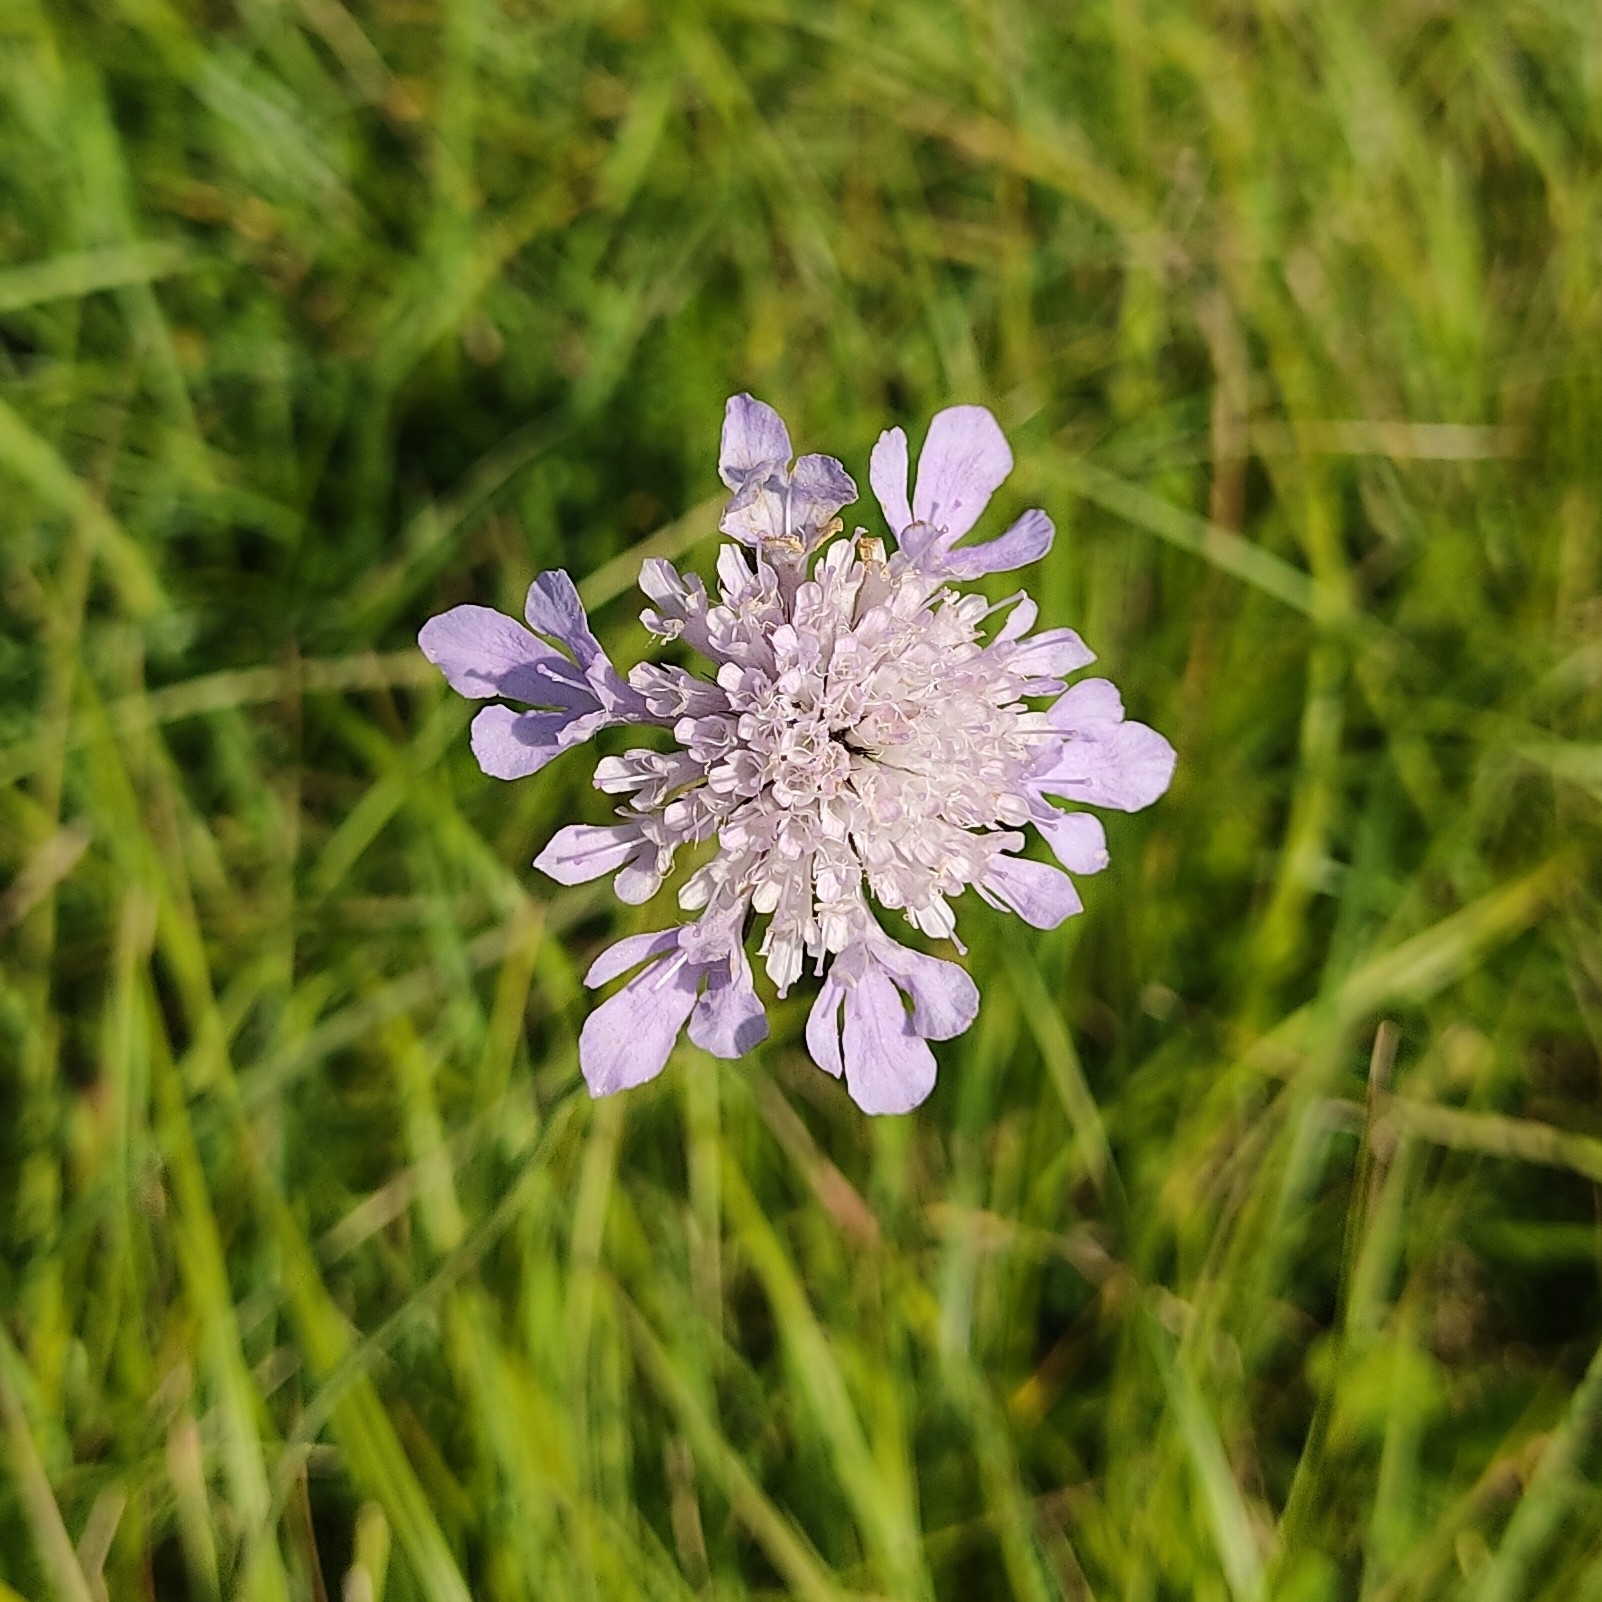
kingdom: Plantae
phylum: Tracheophyta
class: Magnoliopsida
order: Dipsacales
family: Caprifoliaceae
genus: Scabiosa
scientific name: Scabiosa columbaria
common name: Small scabious
